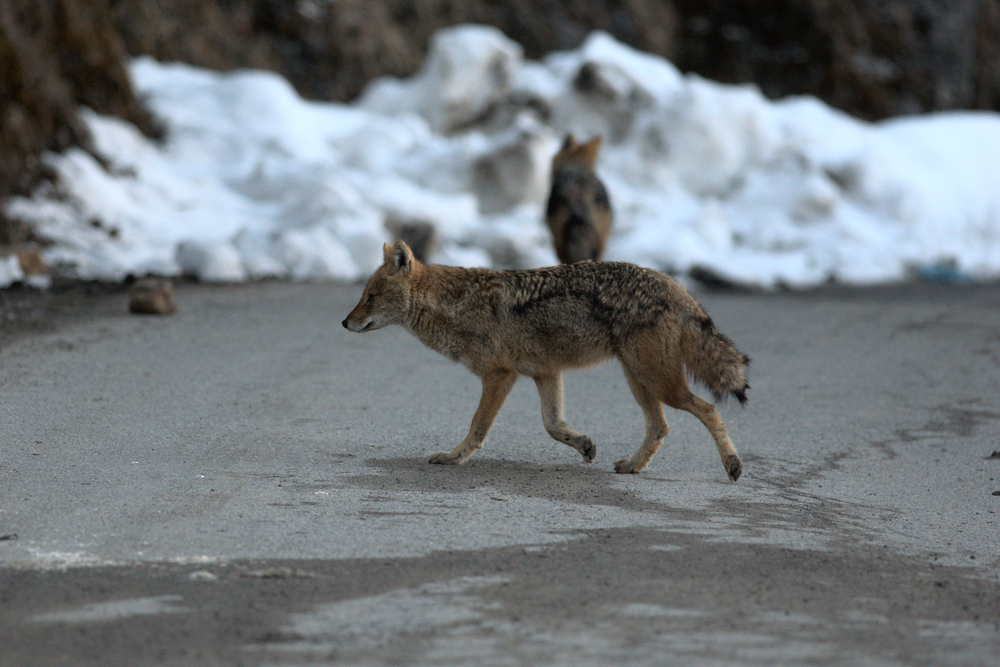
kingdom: Animalia
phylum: Chordata
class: Mammalia
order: Carnivora
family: Canidae
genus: Canis
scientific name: Canis aureus
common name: Golden jackal
